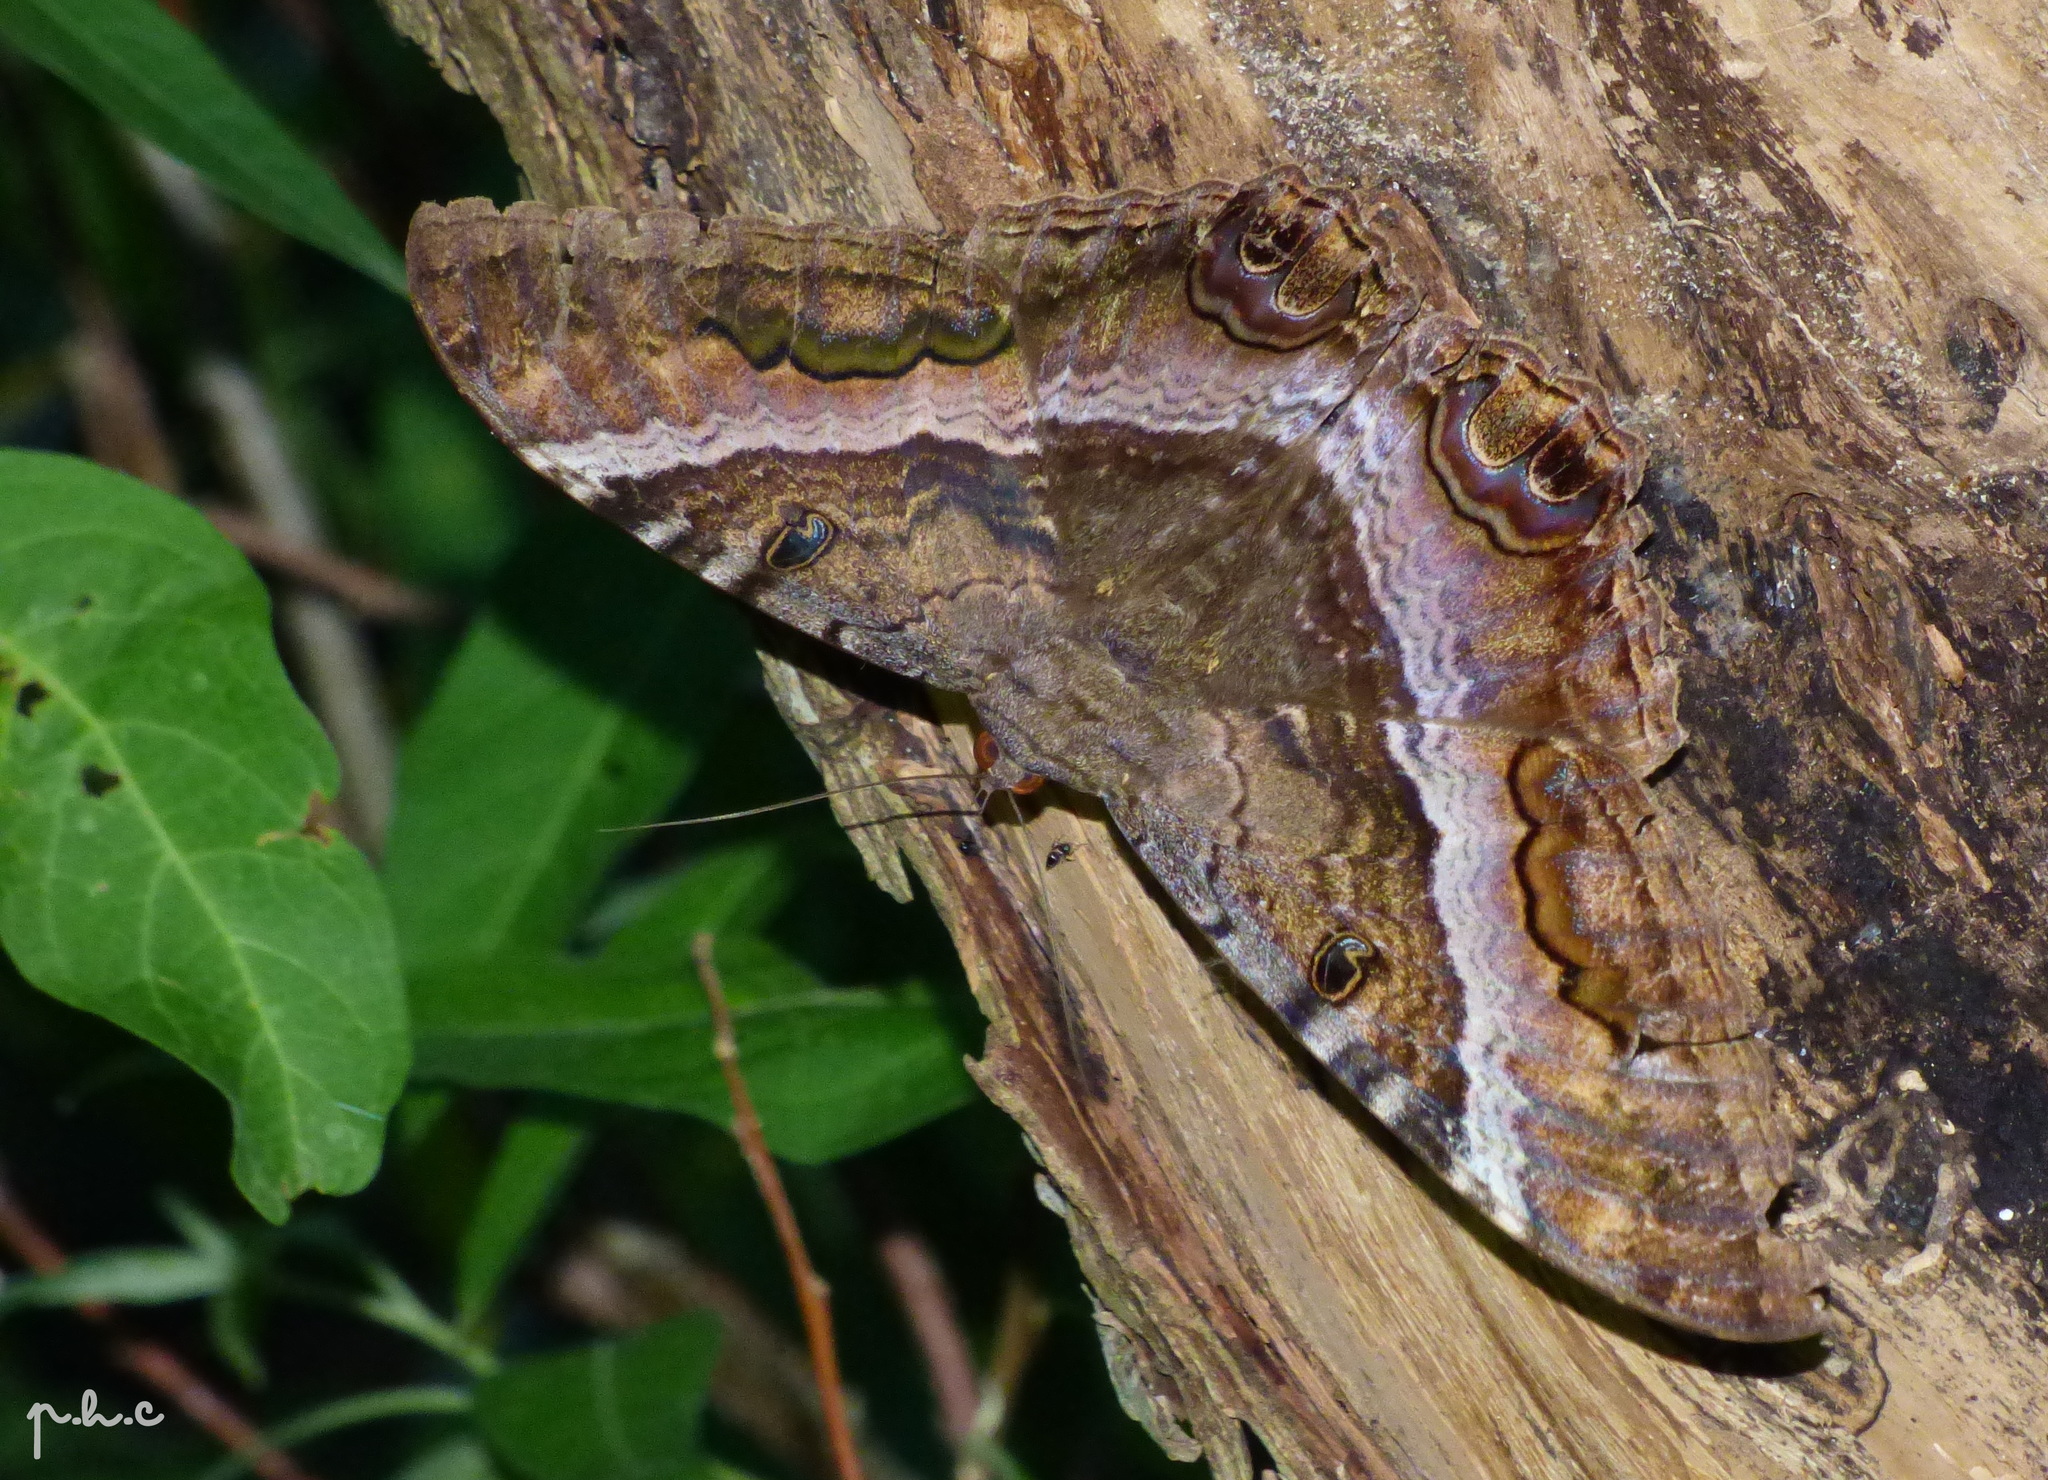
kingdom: Animalia
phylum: Arthropoda
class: Insecta
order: Lepidoptera
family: Erebidae
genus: Ascalapha
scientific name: Ascalapha odorata
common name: Black witch
